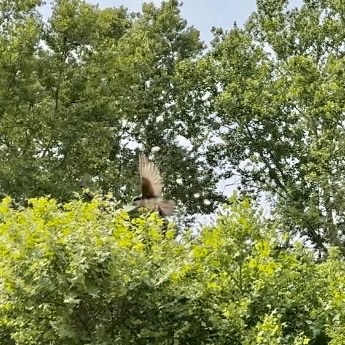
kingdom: Animalia
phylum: Chordata
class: Aves
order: Passeriformes
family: Hirundinidae
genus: Tachycineta
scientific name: Tachycineta bicolor
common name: Tree swallow
